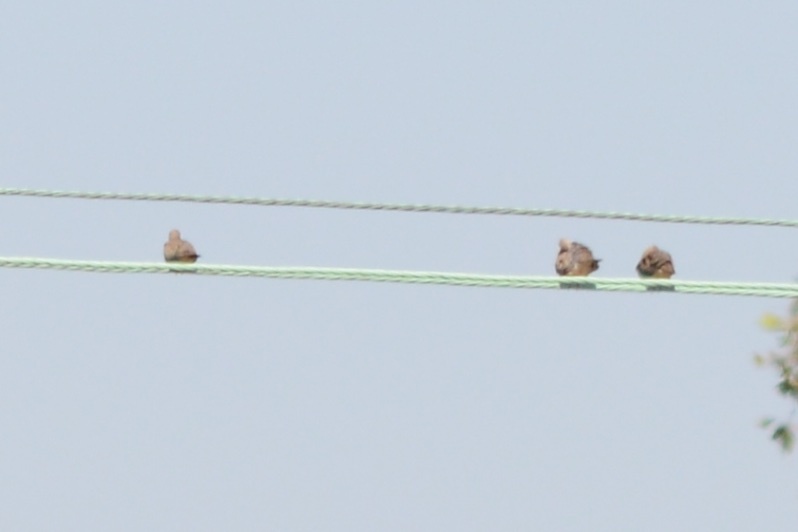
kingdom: Animalia
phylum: Chordata
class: Aves
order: Columbiformes
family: Columbidae
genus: Zenaida
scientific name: Zenaida macroura
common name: Mourning dove
